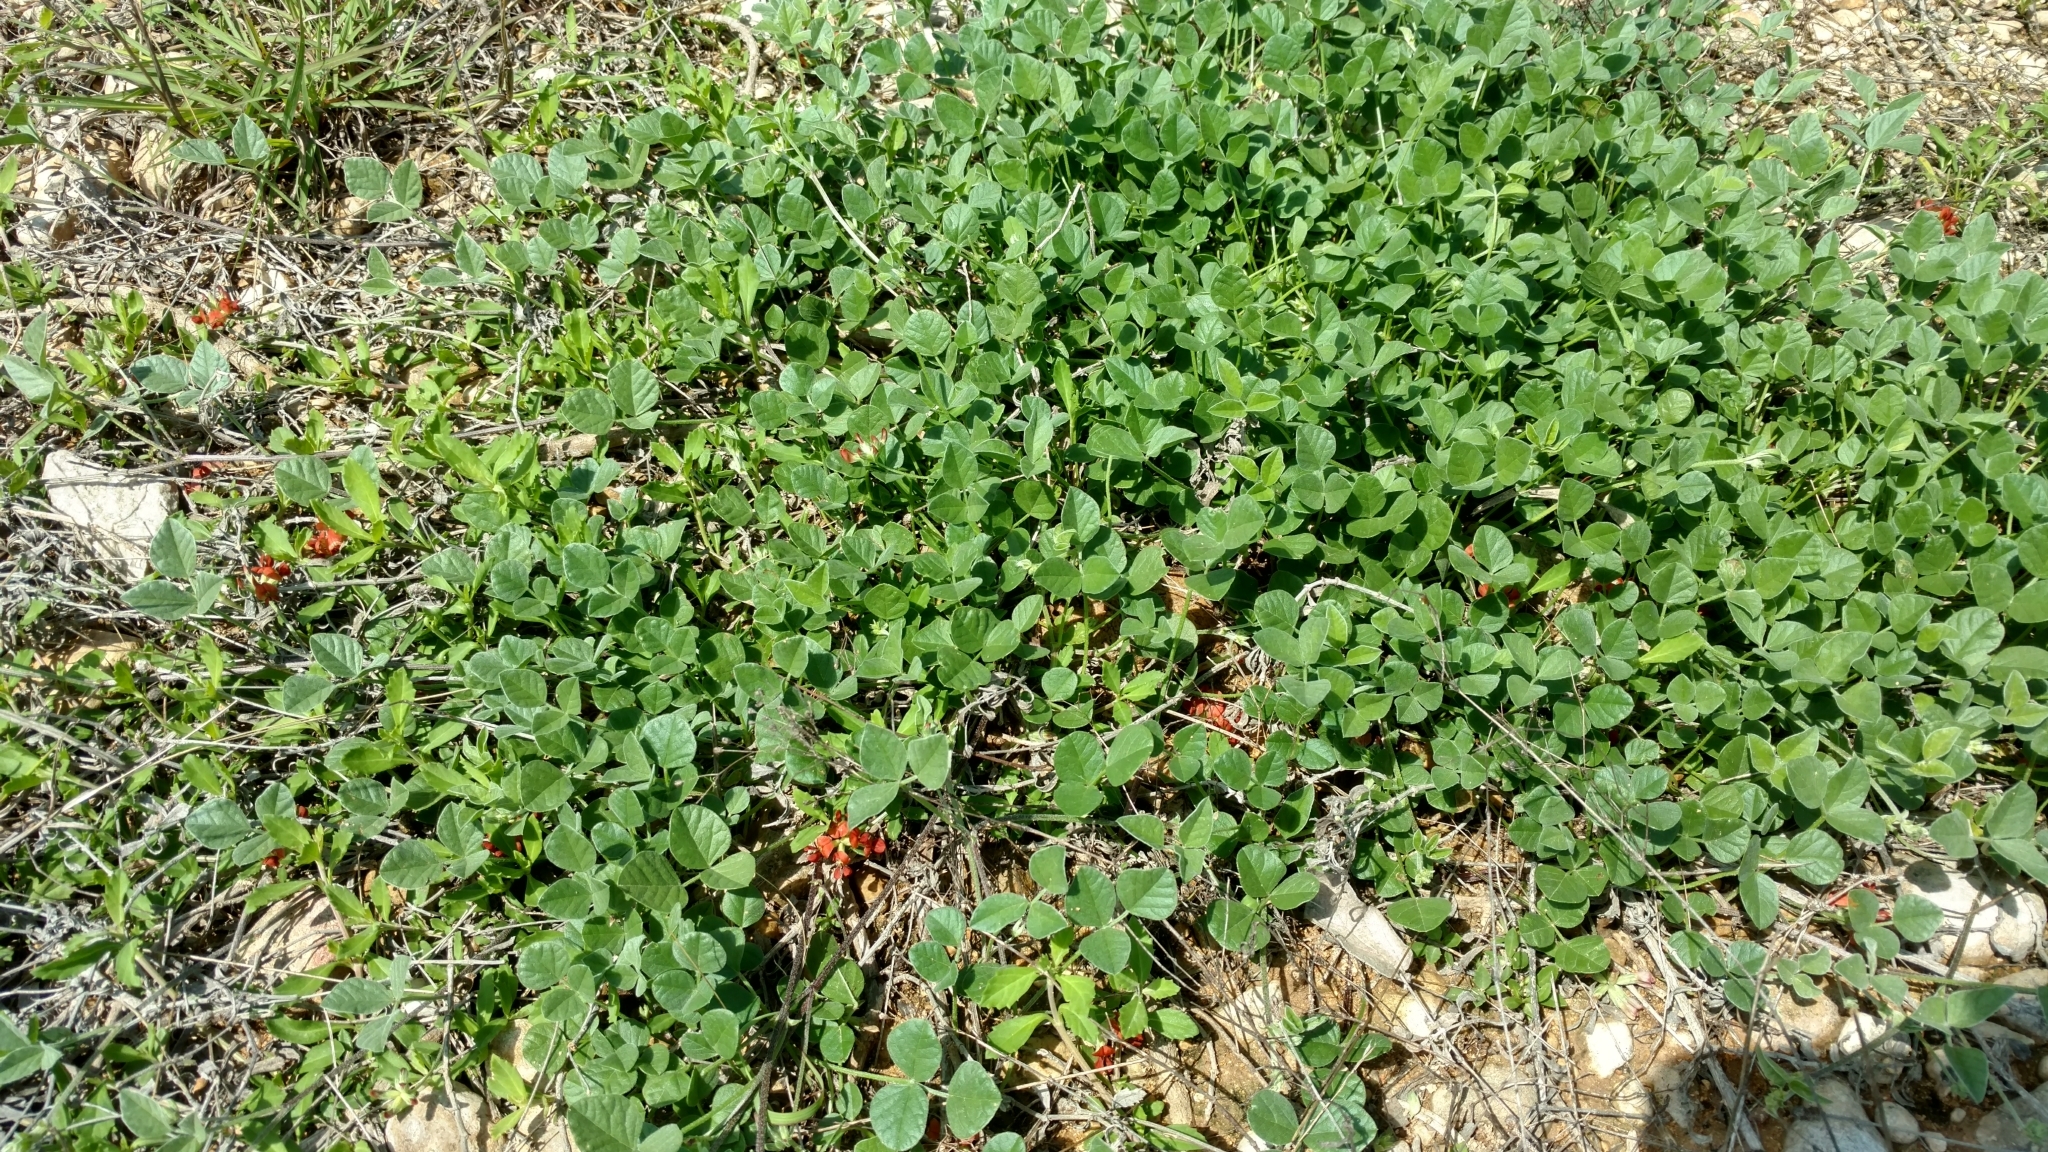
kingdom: Plantae
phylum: Tracheophyta
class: Magnoliopsida
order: Fabales
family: Fabaceae
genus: Pediomelum
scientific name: Pediomelum rhombifolium
